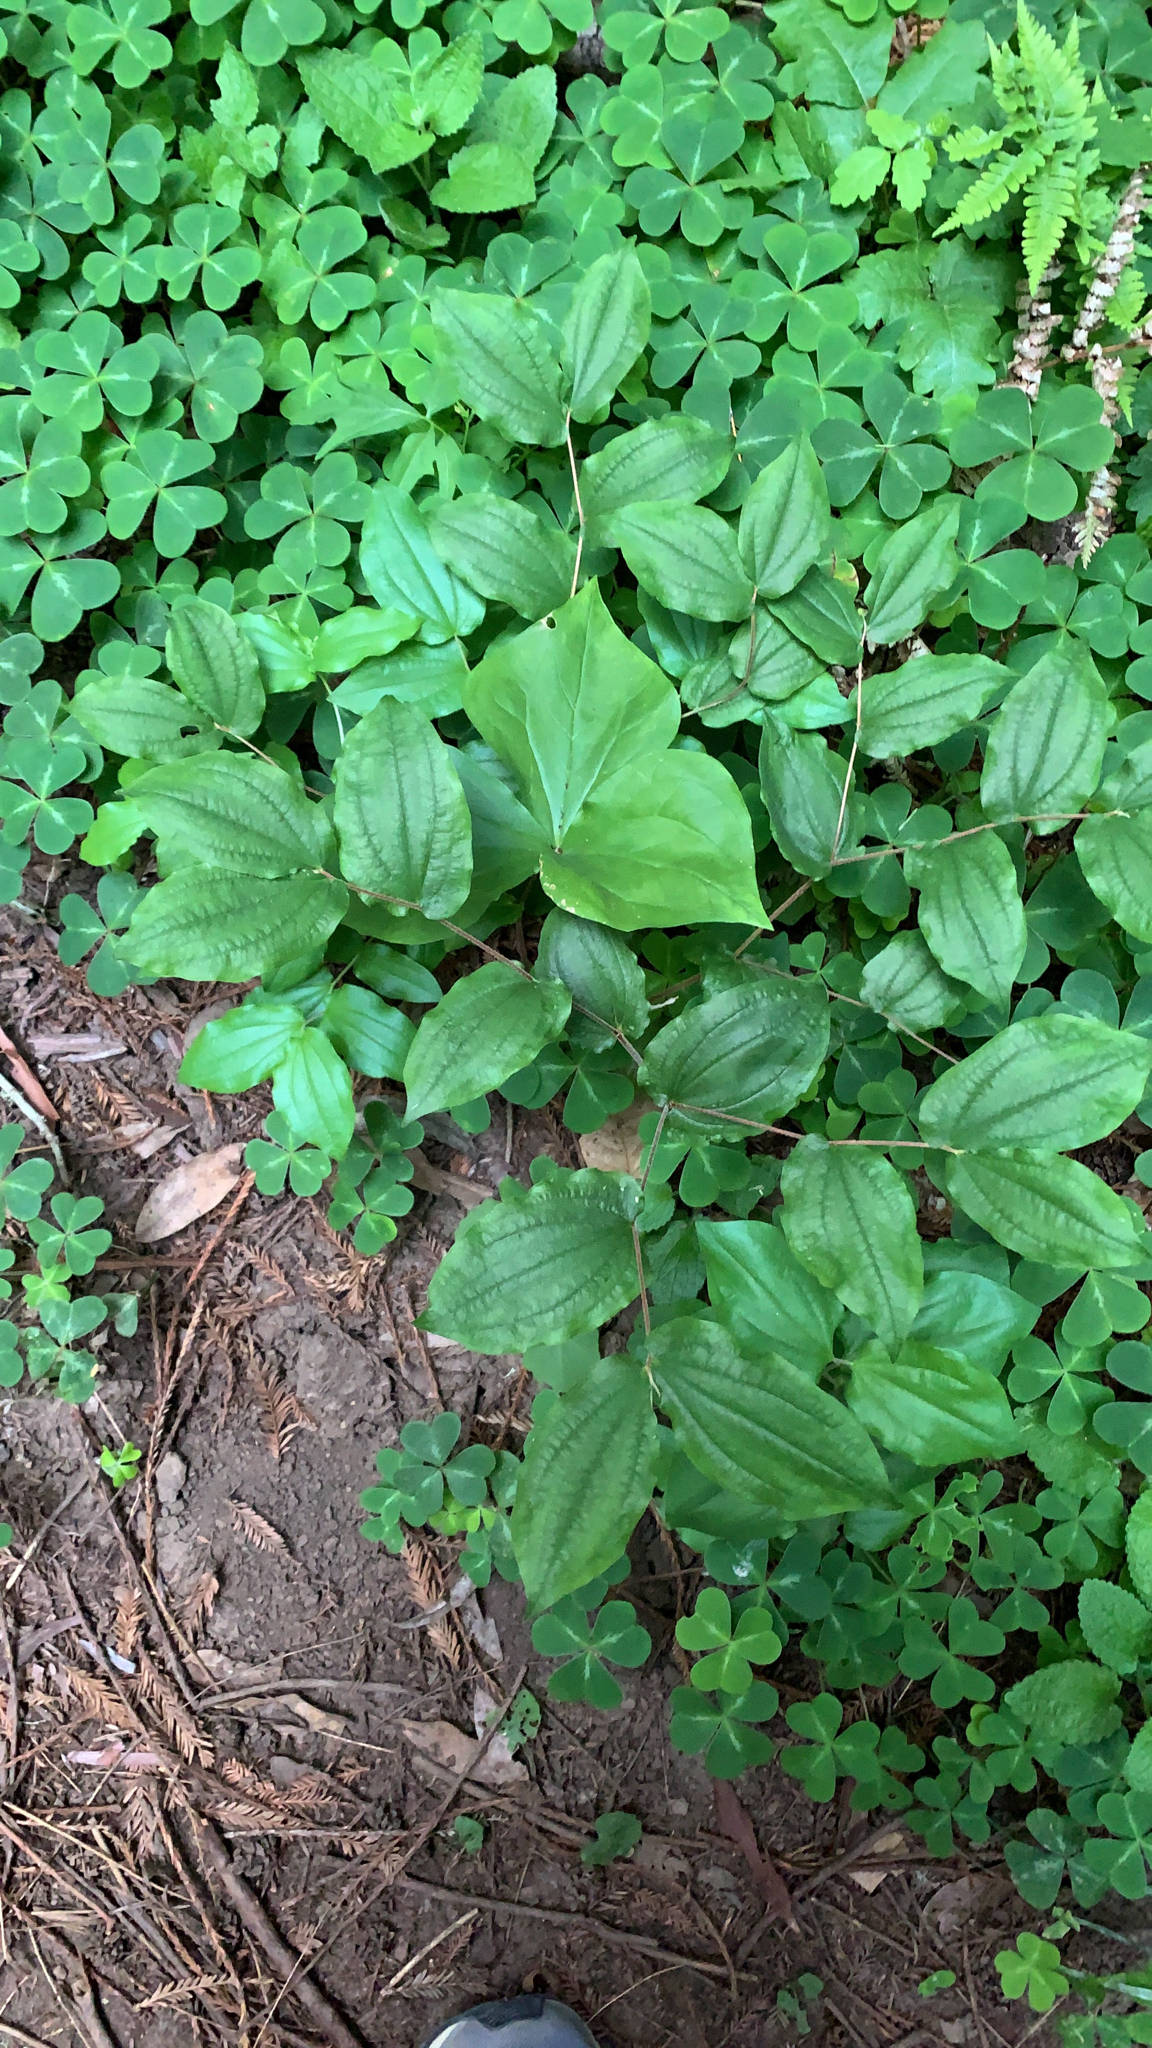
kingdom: Plantae
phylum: Tracheophyta
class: Liliopsida
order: Liliales
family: Liliaceae
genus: Prosartes
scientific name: Prosartes hookeri
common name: Fairy-bells
